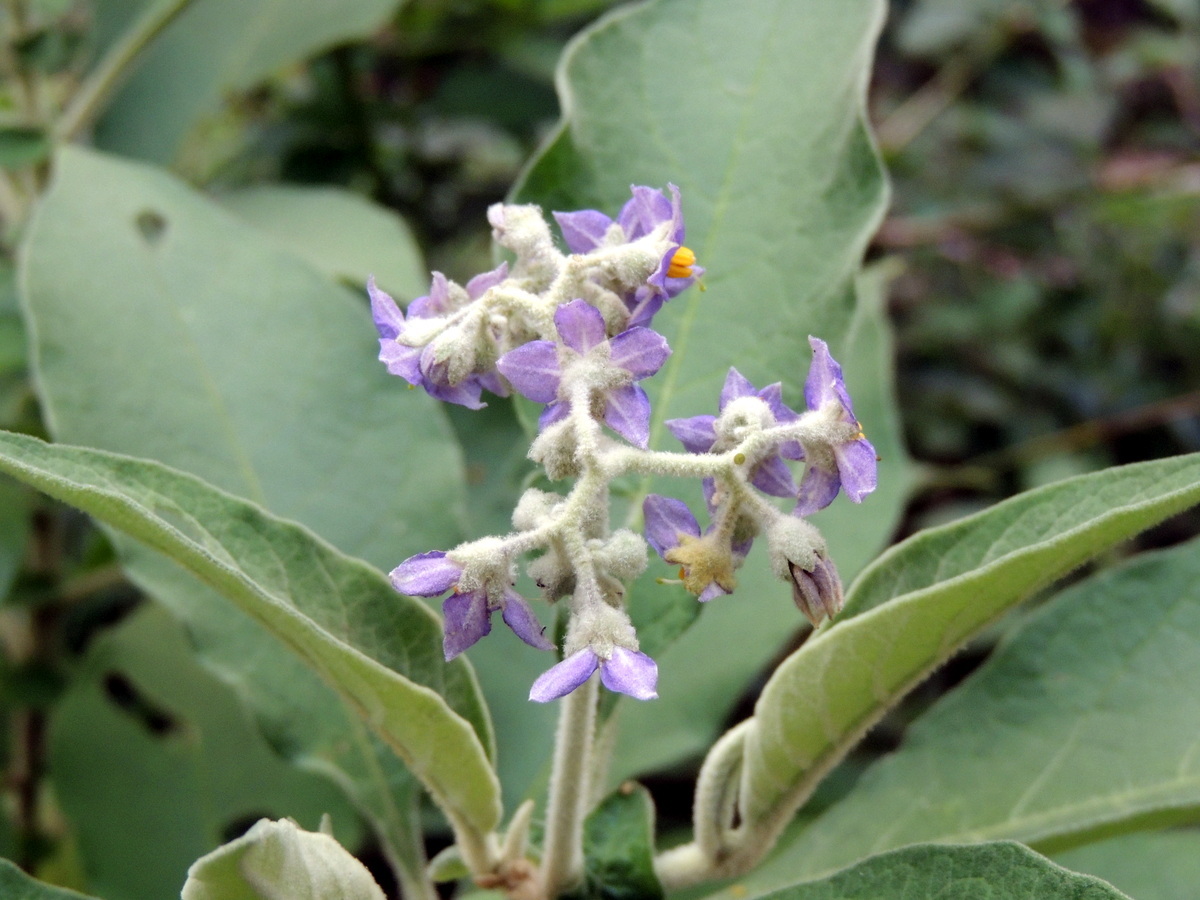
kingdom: Plantae
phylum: Tracheophyta
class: Magnoliopsida
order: Solanales
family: Solanaceae
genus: Solanum
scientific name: Solanum mauritianum
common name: Earleaf nightshade
